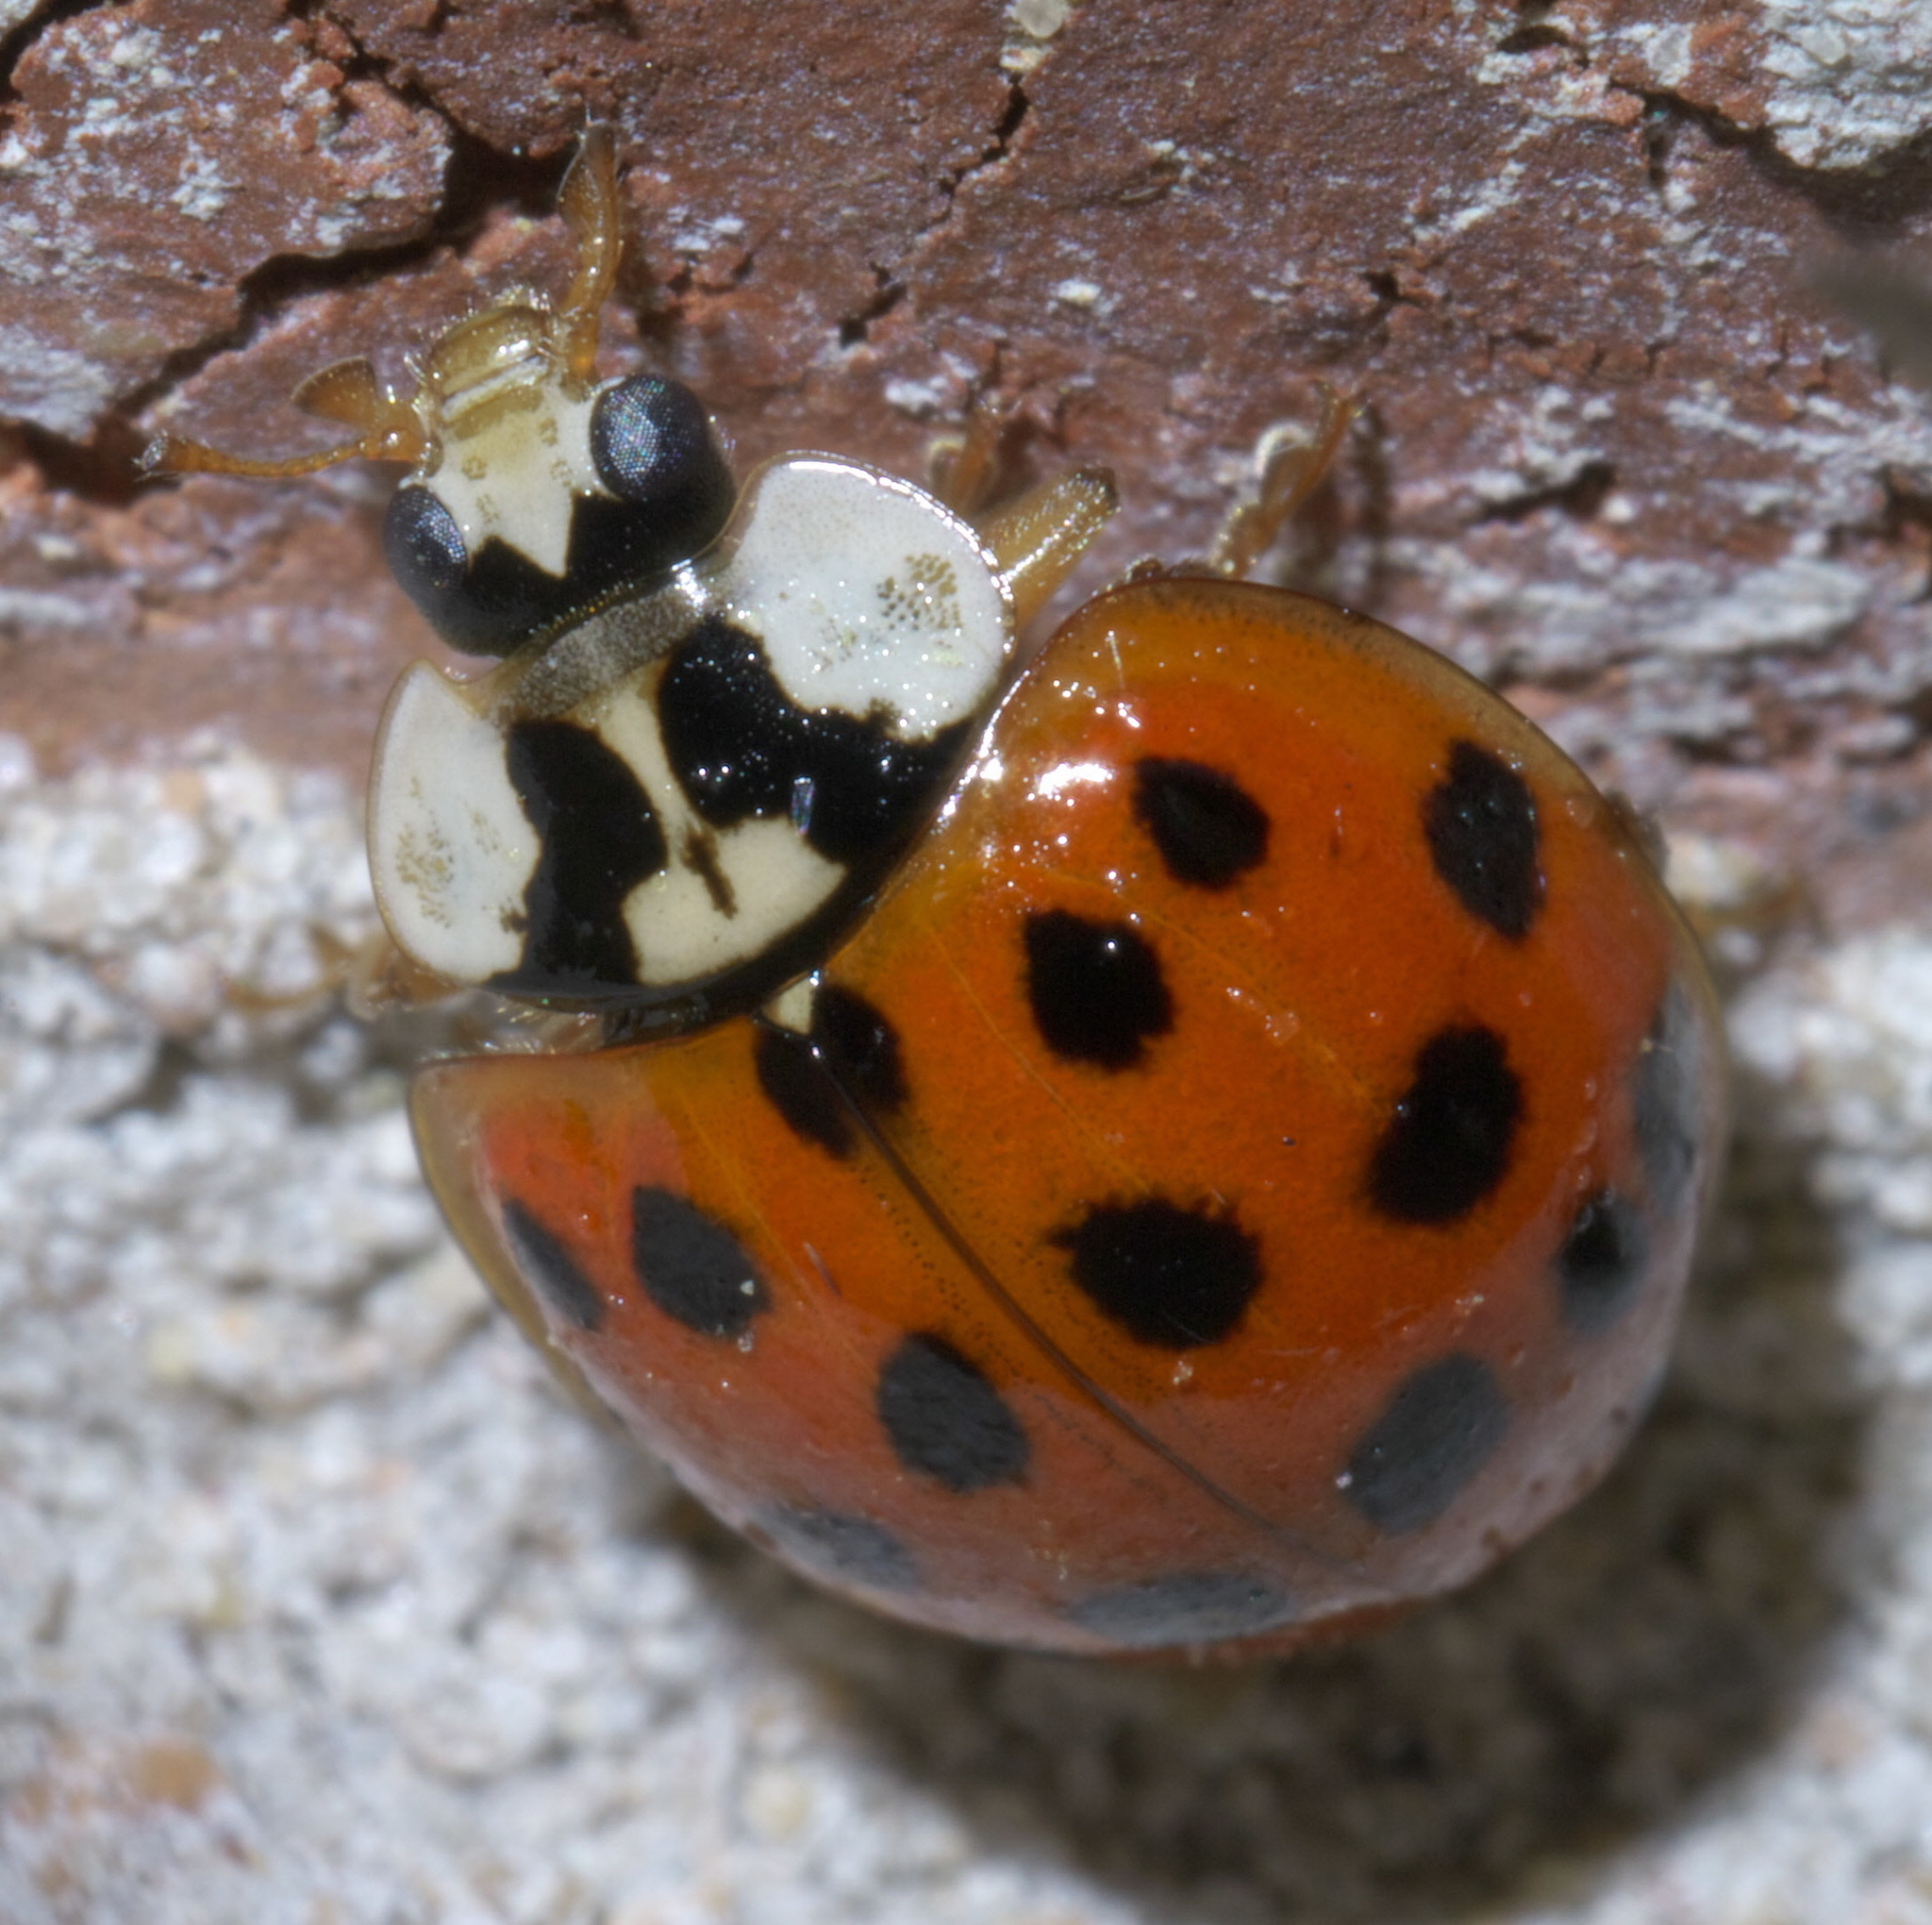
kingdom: Animalia
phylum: Arthropoda
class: Insecta
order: Coleoptera
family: Coccinellidae
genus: Harmonia
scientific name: Harmonia axyridis
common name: Harlequin ladybird
